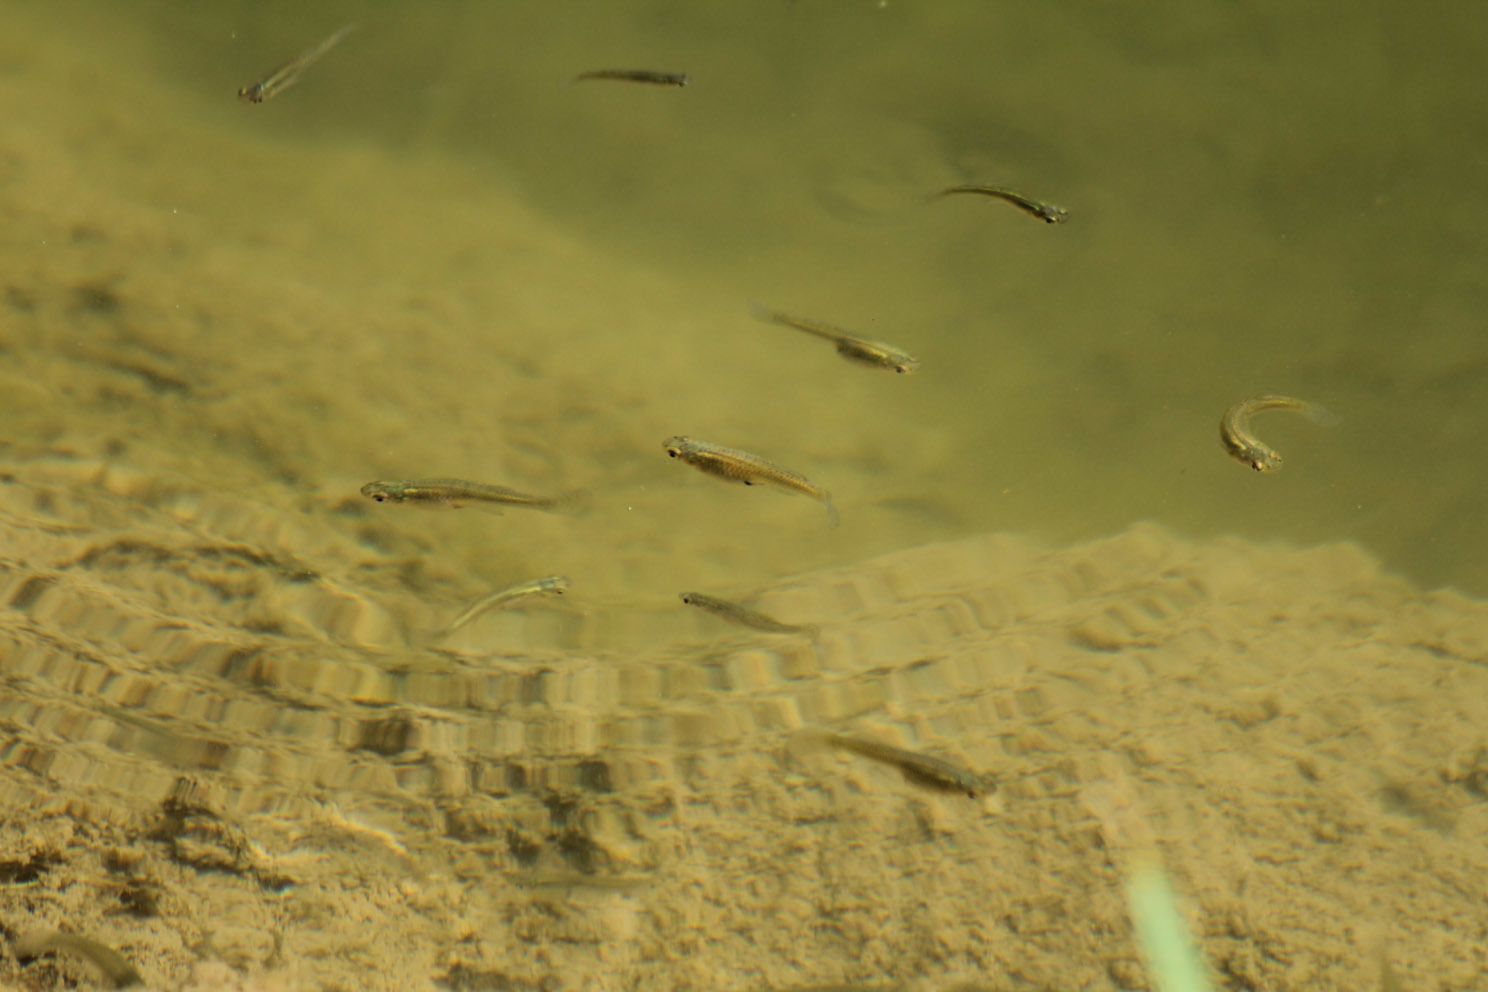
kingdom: Animalia
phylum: Chordata
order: Cyprinodontiformes
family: Poeciliidae
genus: Gambusia
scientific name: Gambusia holbrooki
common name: Eastern mosquitofish
